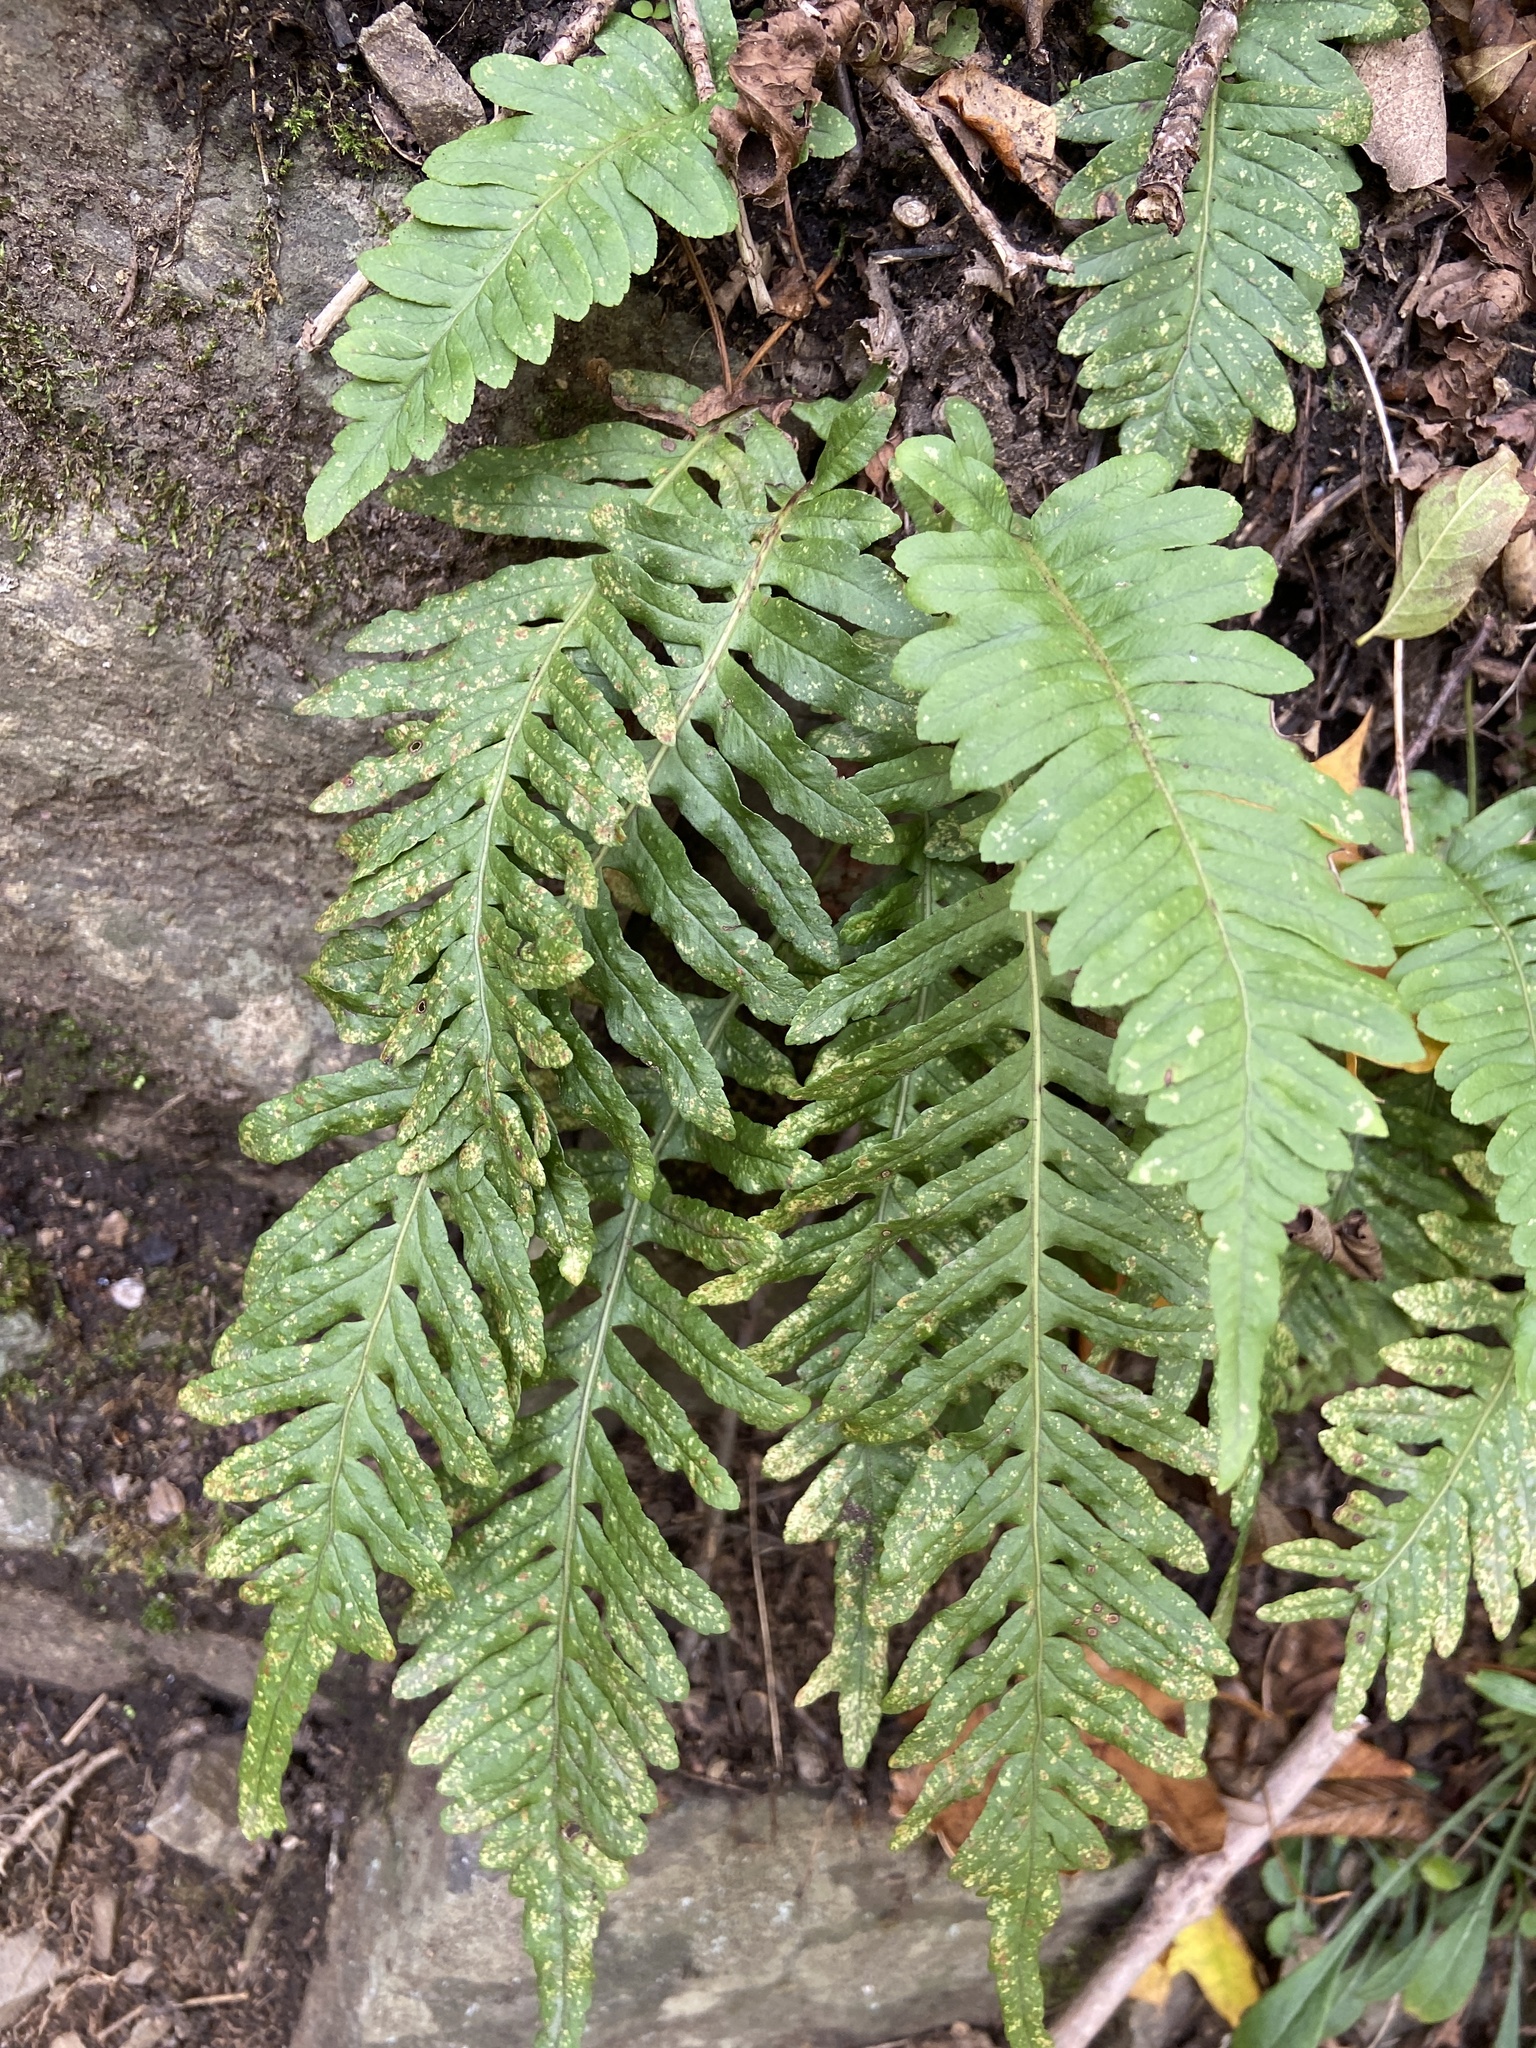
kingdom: Plantae
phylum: Tracheophyta
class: Polypodiopsida
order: Polypodiales
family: Polypodiaceae
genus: Polypodium
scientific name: Polypodium vulgare
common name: Common polypody
